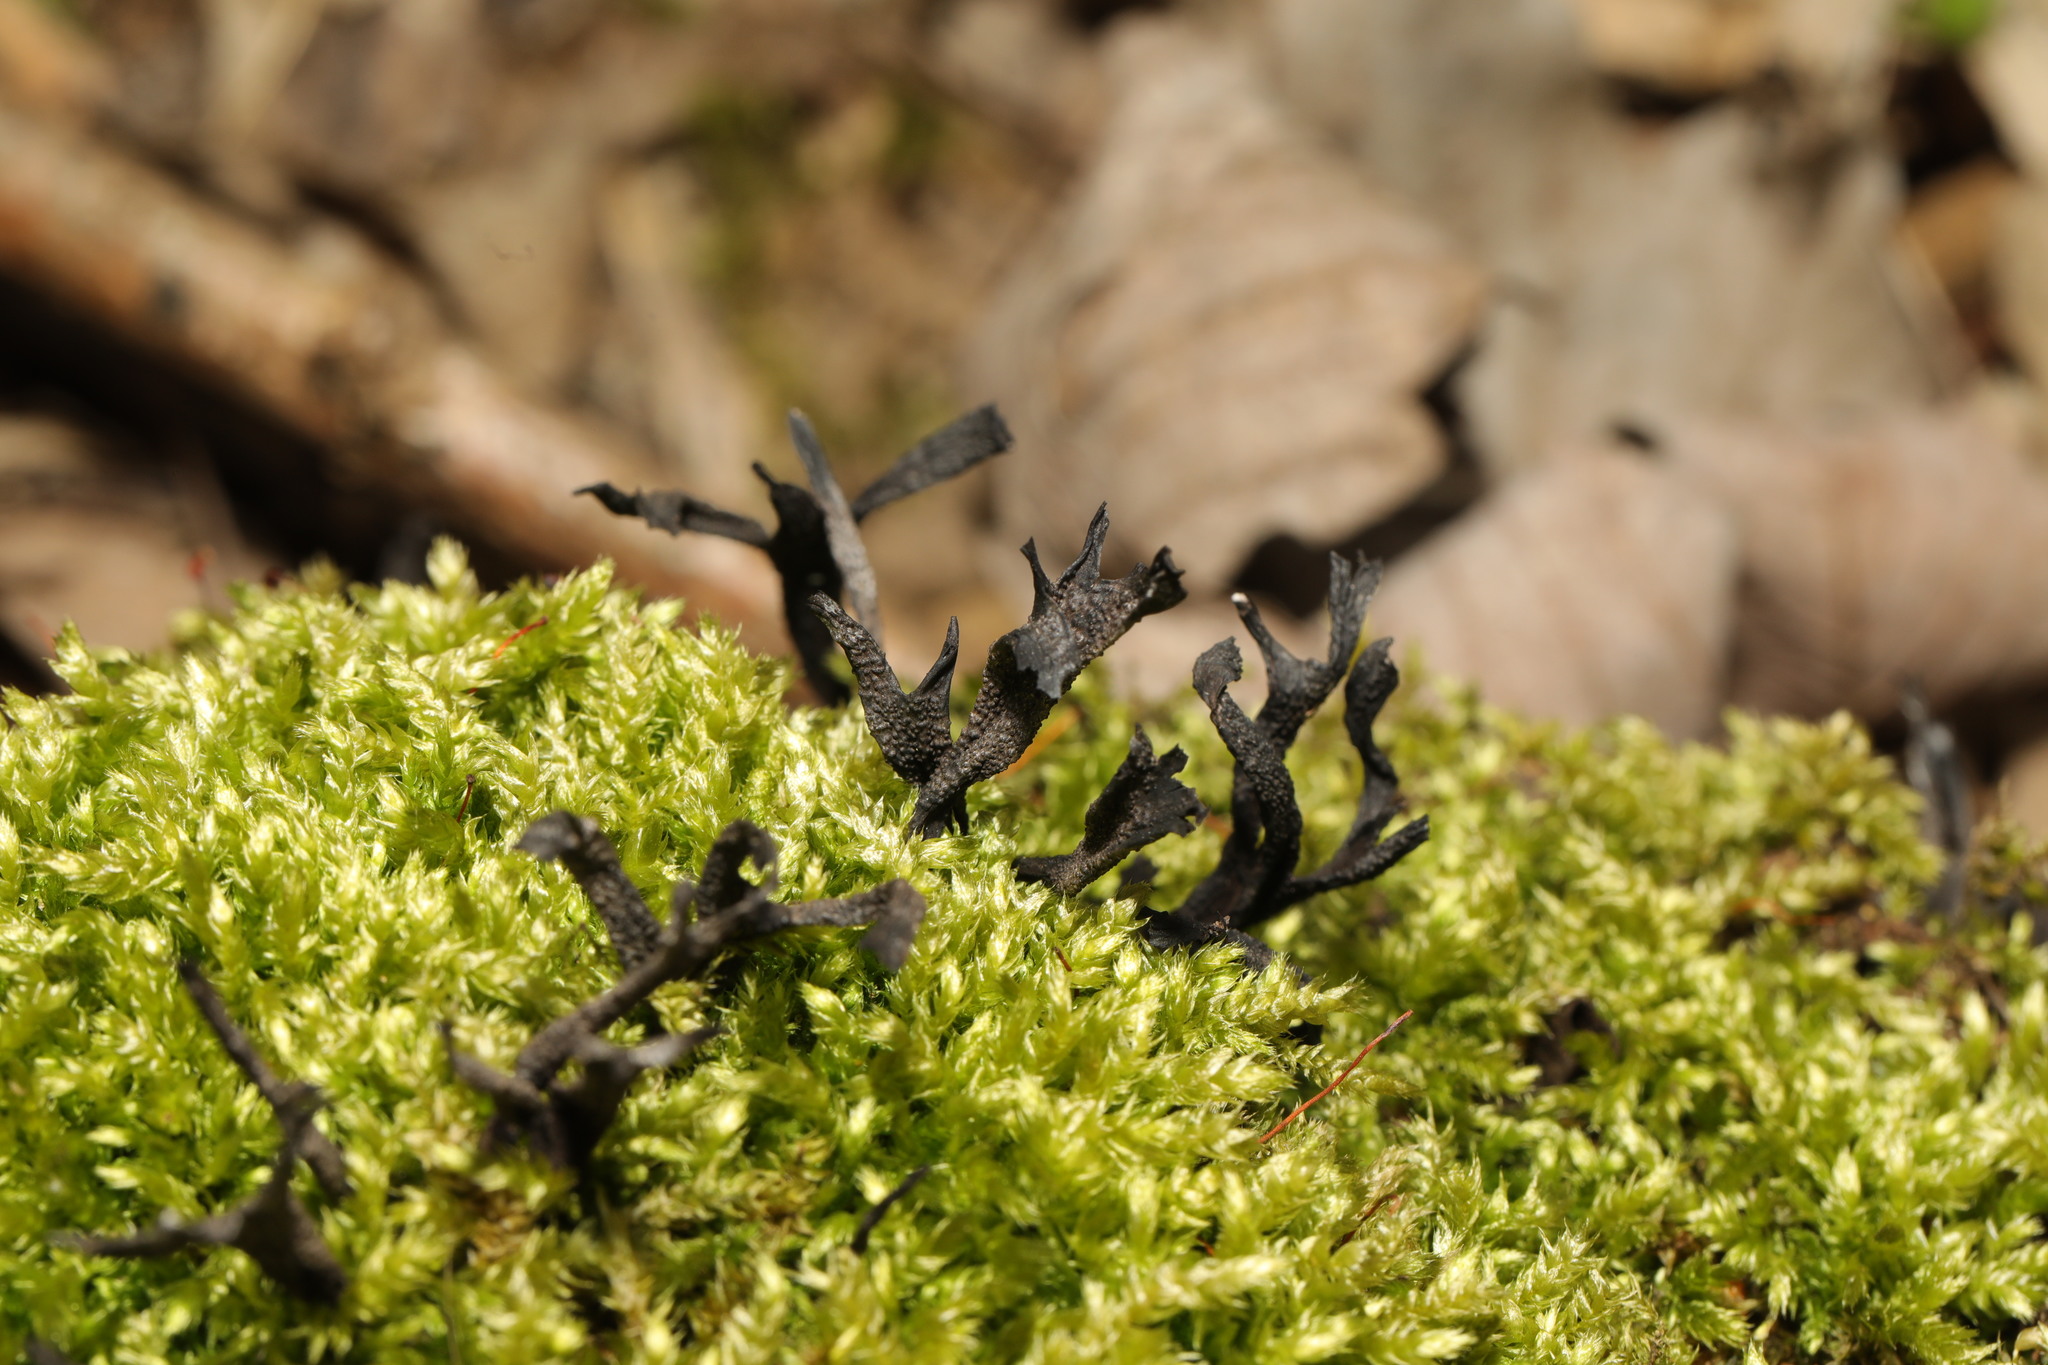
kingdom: Fungi
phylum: Ascomycota
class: Sordariomycetes
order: Xylariales
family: Xylariaceae
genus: Xylaria
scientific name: Xylaria hypoxylon
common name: Candle-snuff fungus
